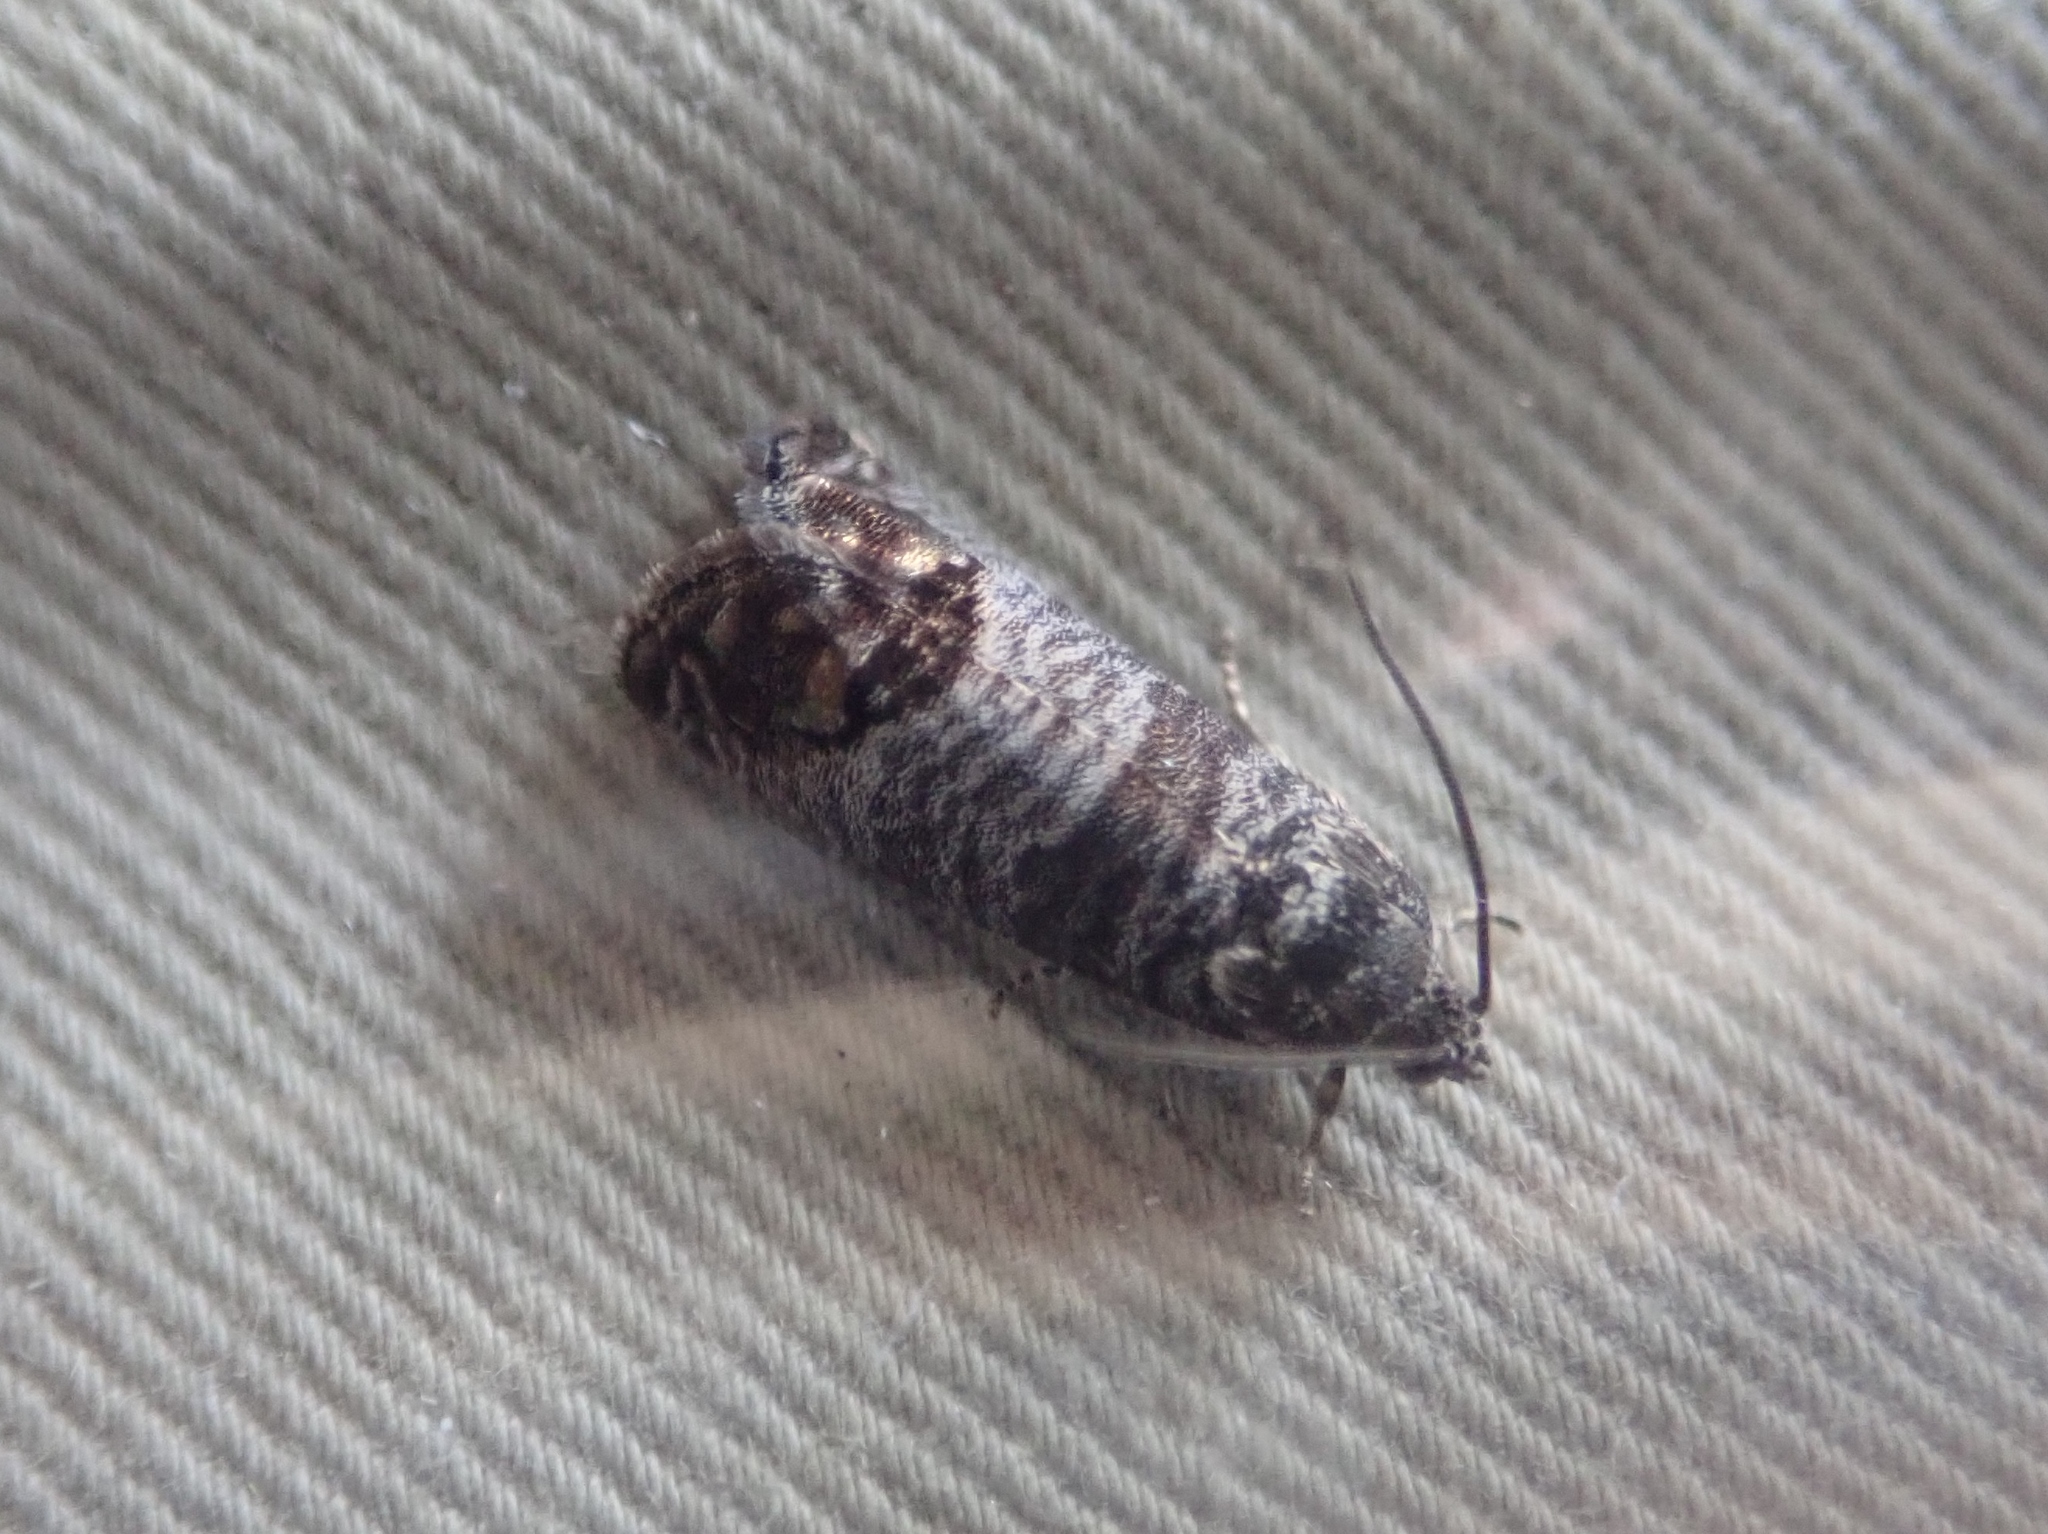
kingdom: Animalia
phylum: Arthropoda
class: Insecta
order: Lepidoptera
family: Tortricidae
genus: Cydia
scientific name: Cydia pomonella
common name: Codling moth
